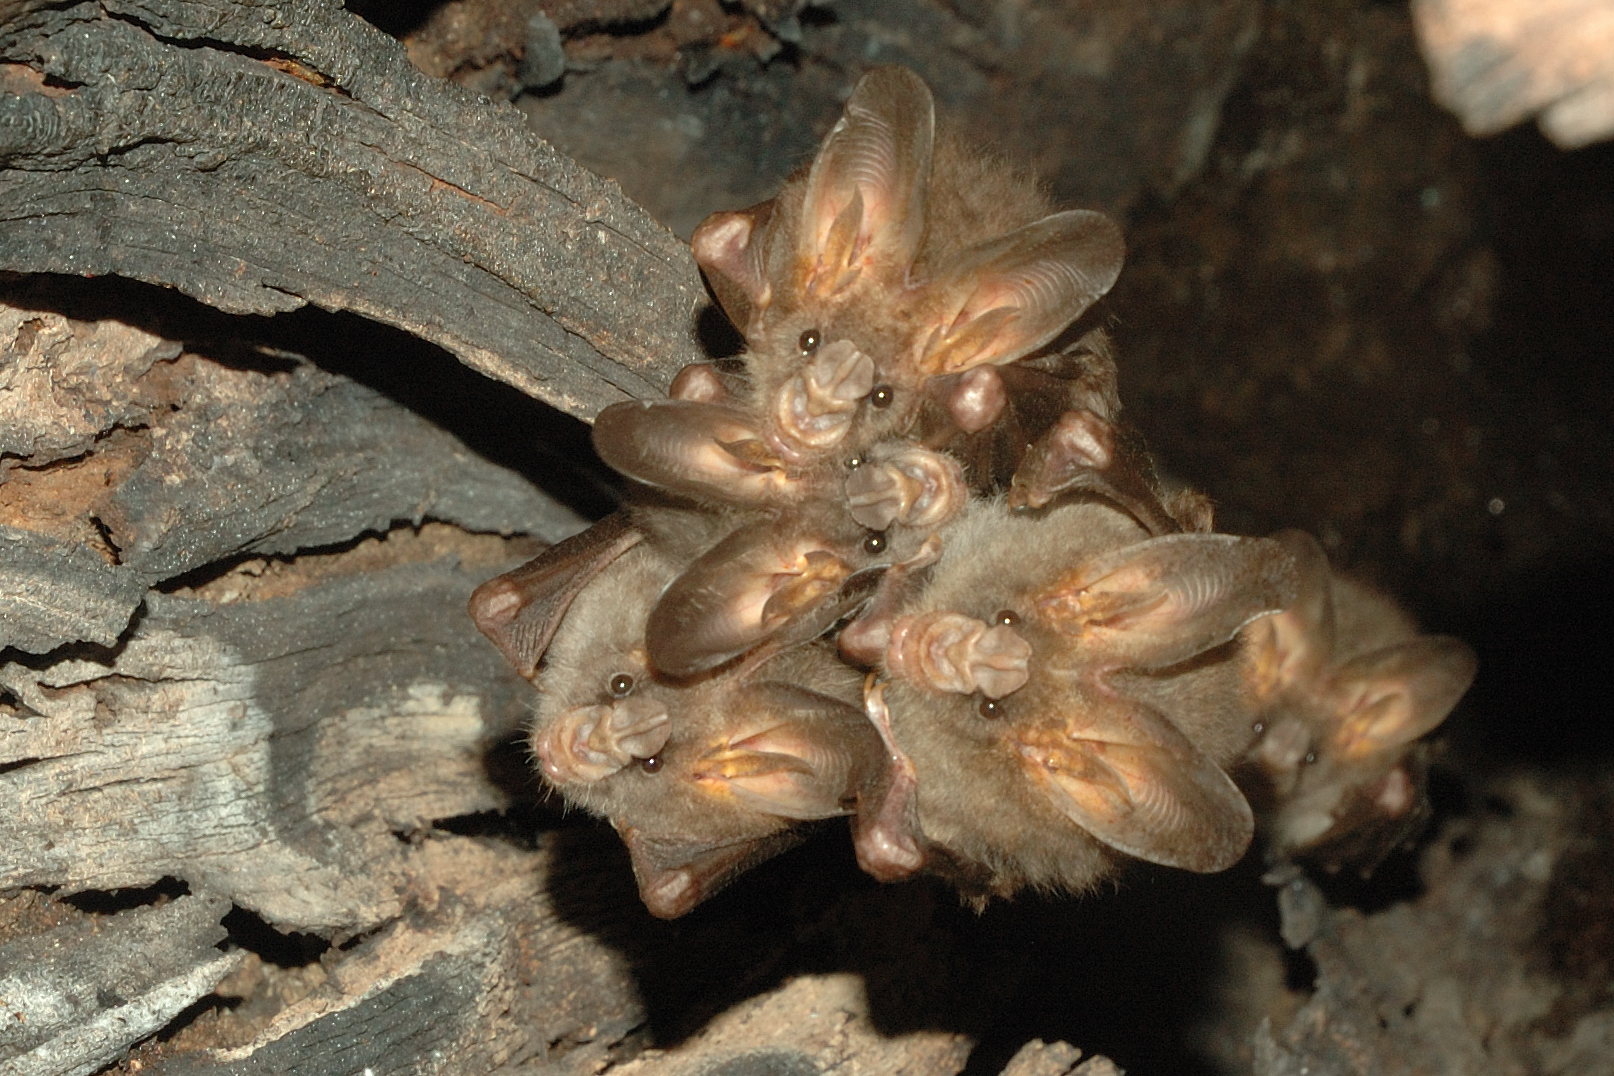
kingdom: Animalia
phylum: Chordata
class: Mammalia
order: Chiroptera
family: Megadermatidae
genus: Megaderma
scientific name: Megaderma spasma
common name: Lesser false vampire bat
